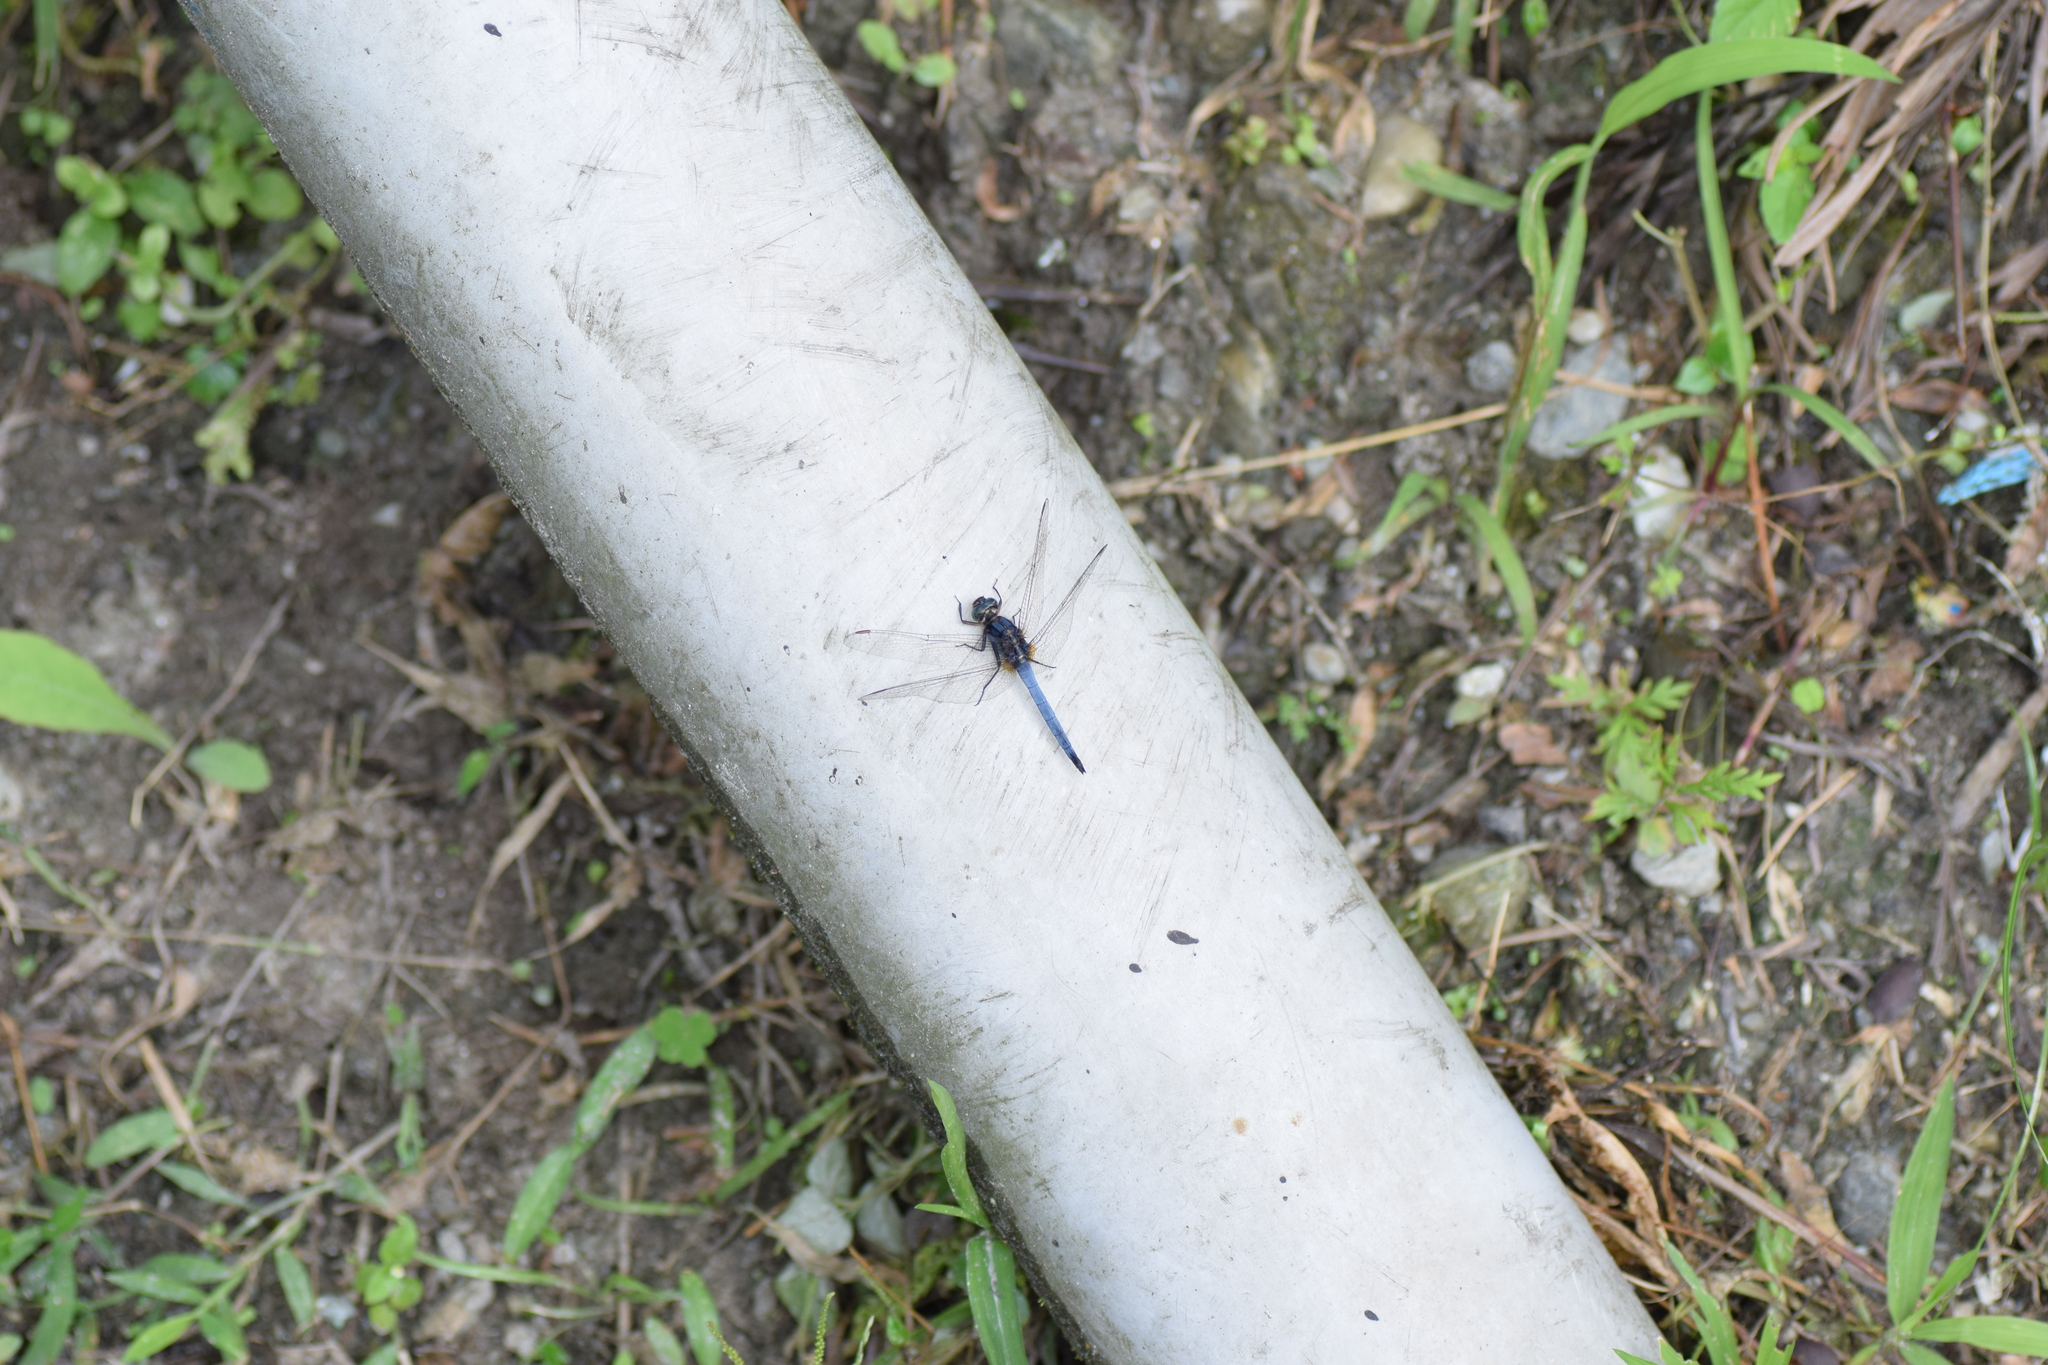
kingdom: Animalia
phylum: Arthropoda
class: Insecta
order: Odonata
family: Libellulidae
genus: Orthetrum
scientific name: Orthetrum glaucum
